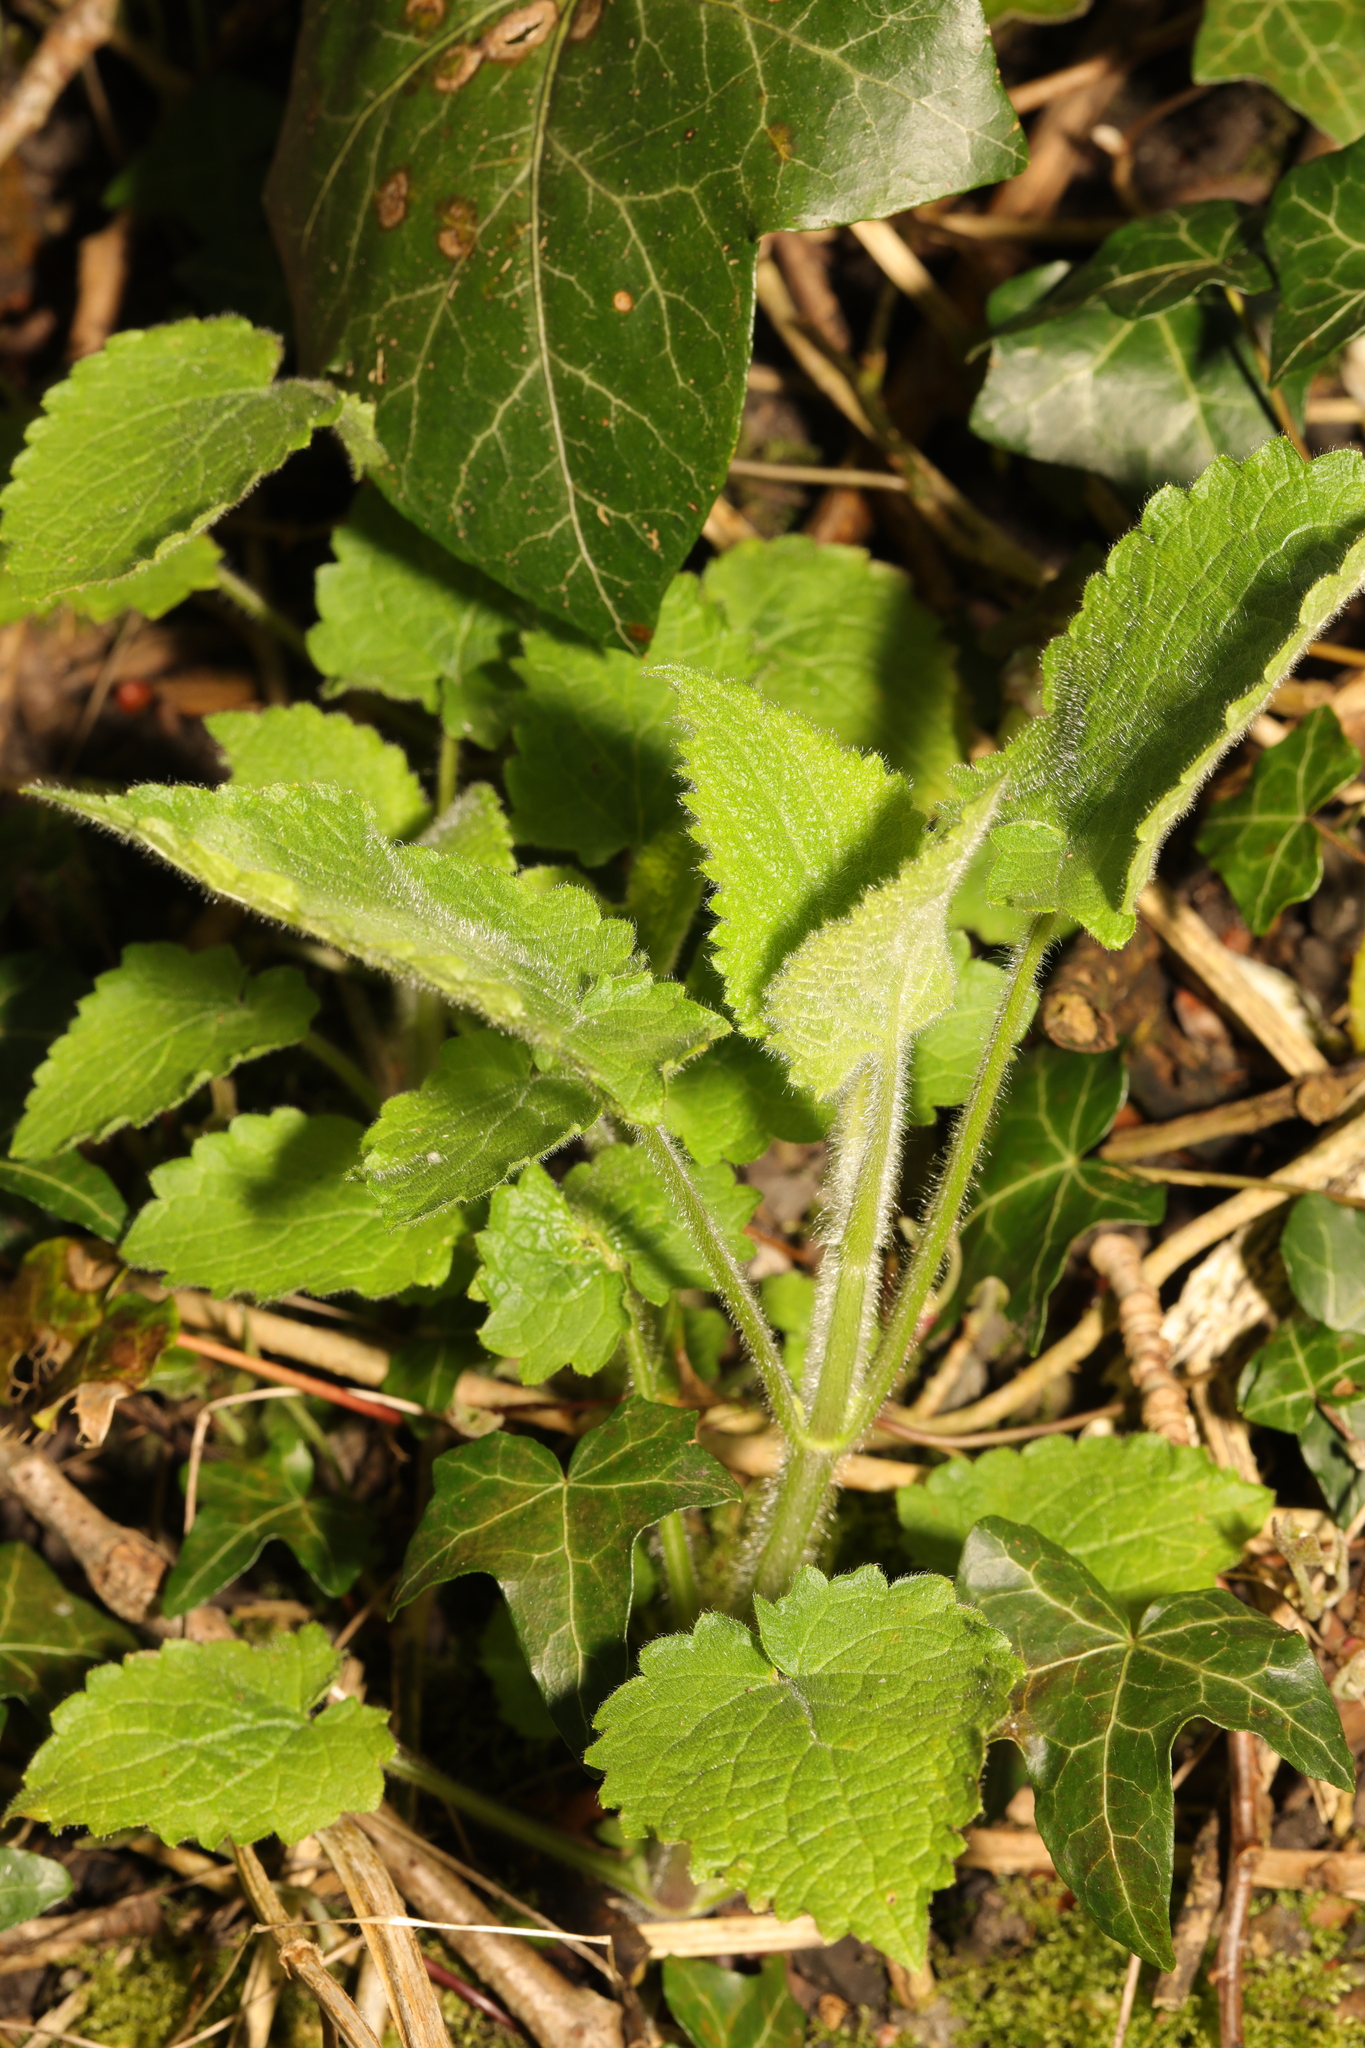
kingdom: Plantae
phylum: Tracheophyta
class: Magnoliopsida
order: Lamiales
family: Lamiaceae
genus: Stachys
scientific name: Stachys sylvatica
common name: Hedge woundwort
